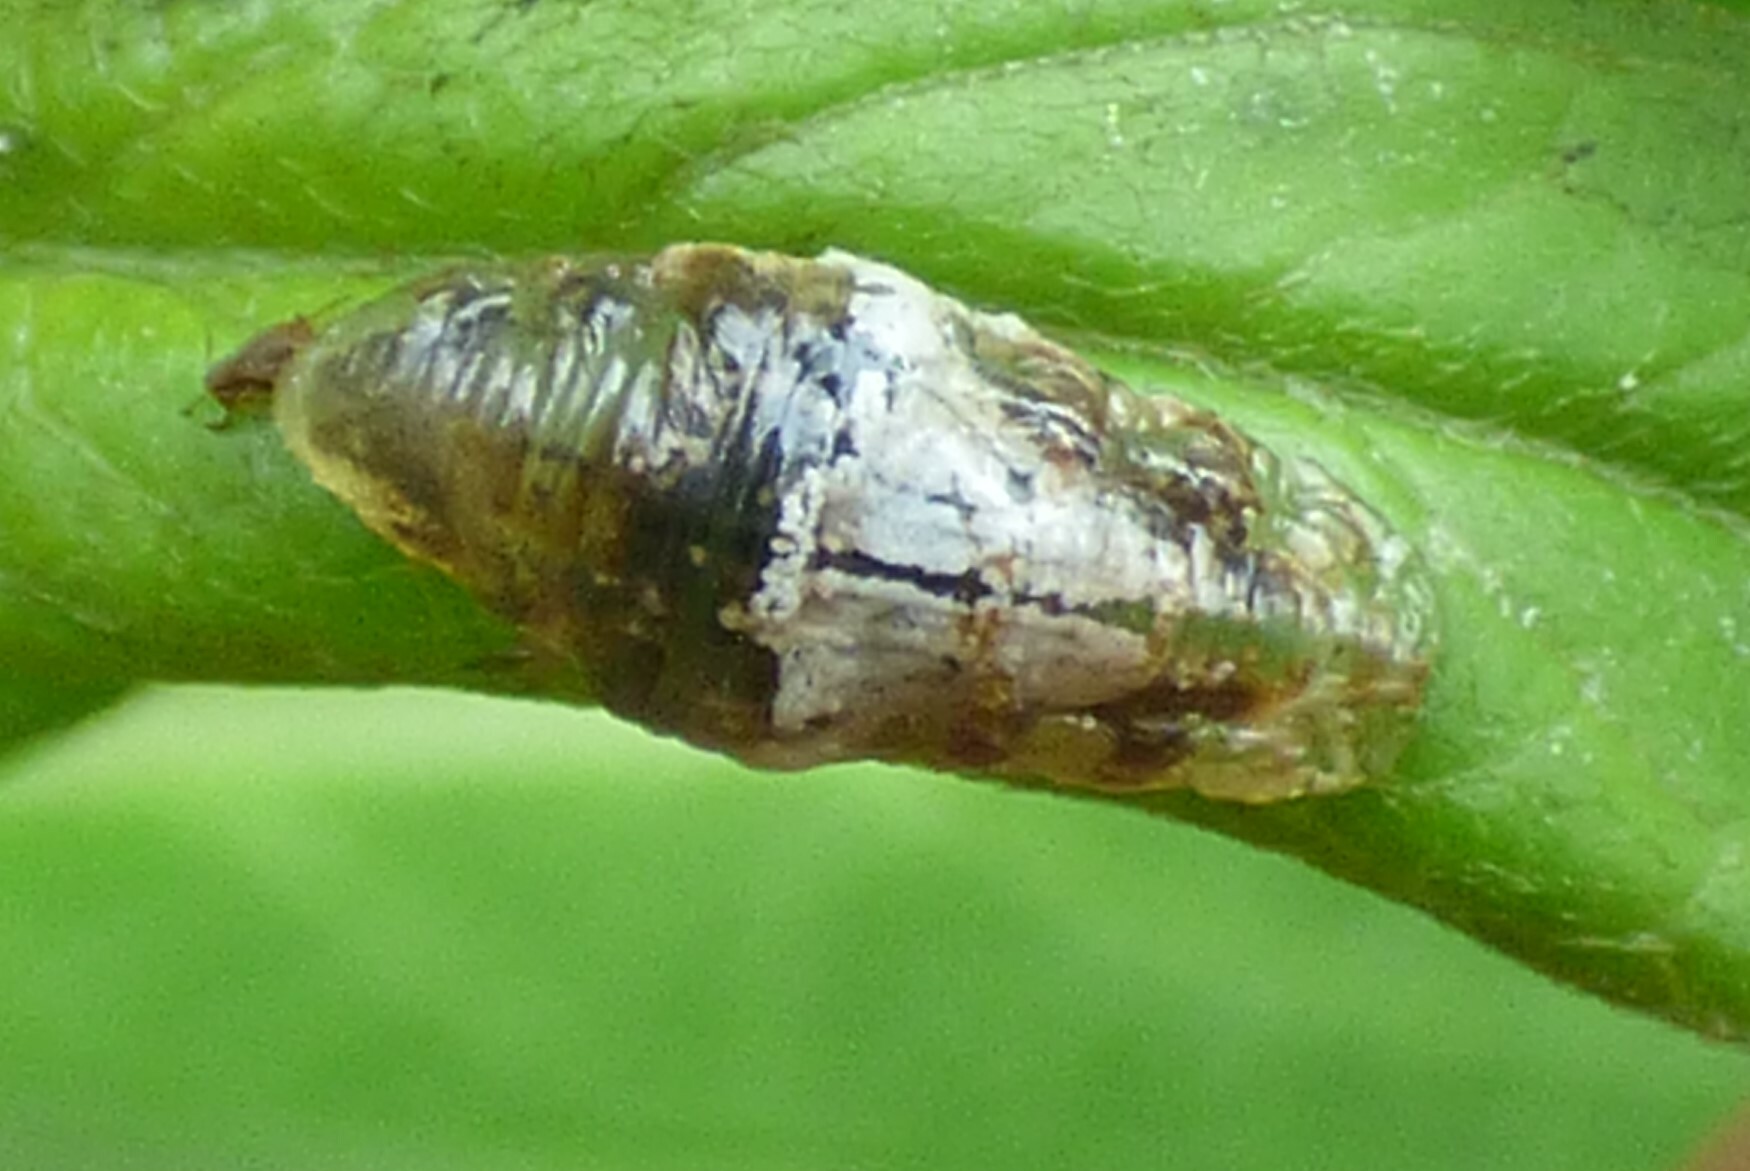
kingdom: Animalia
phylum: Arthropoda
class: Insecta
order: Diptera
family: Syrphidae
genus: Ocyptamus
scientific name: Ocyptamus fuscipennis
